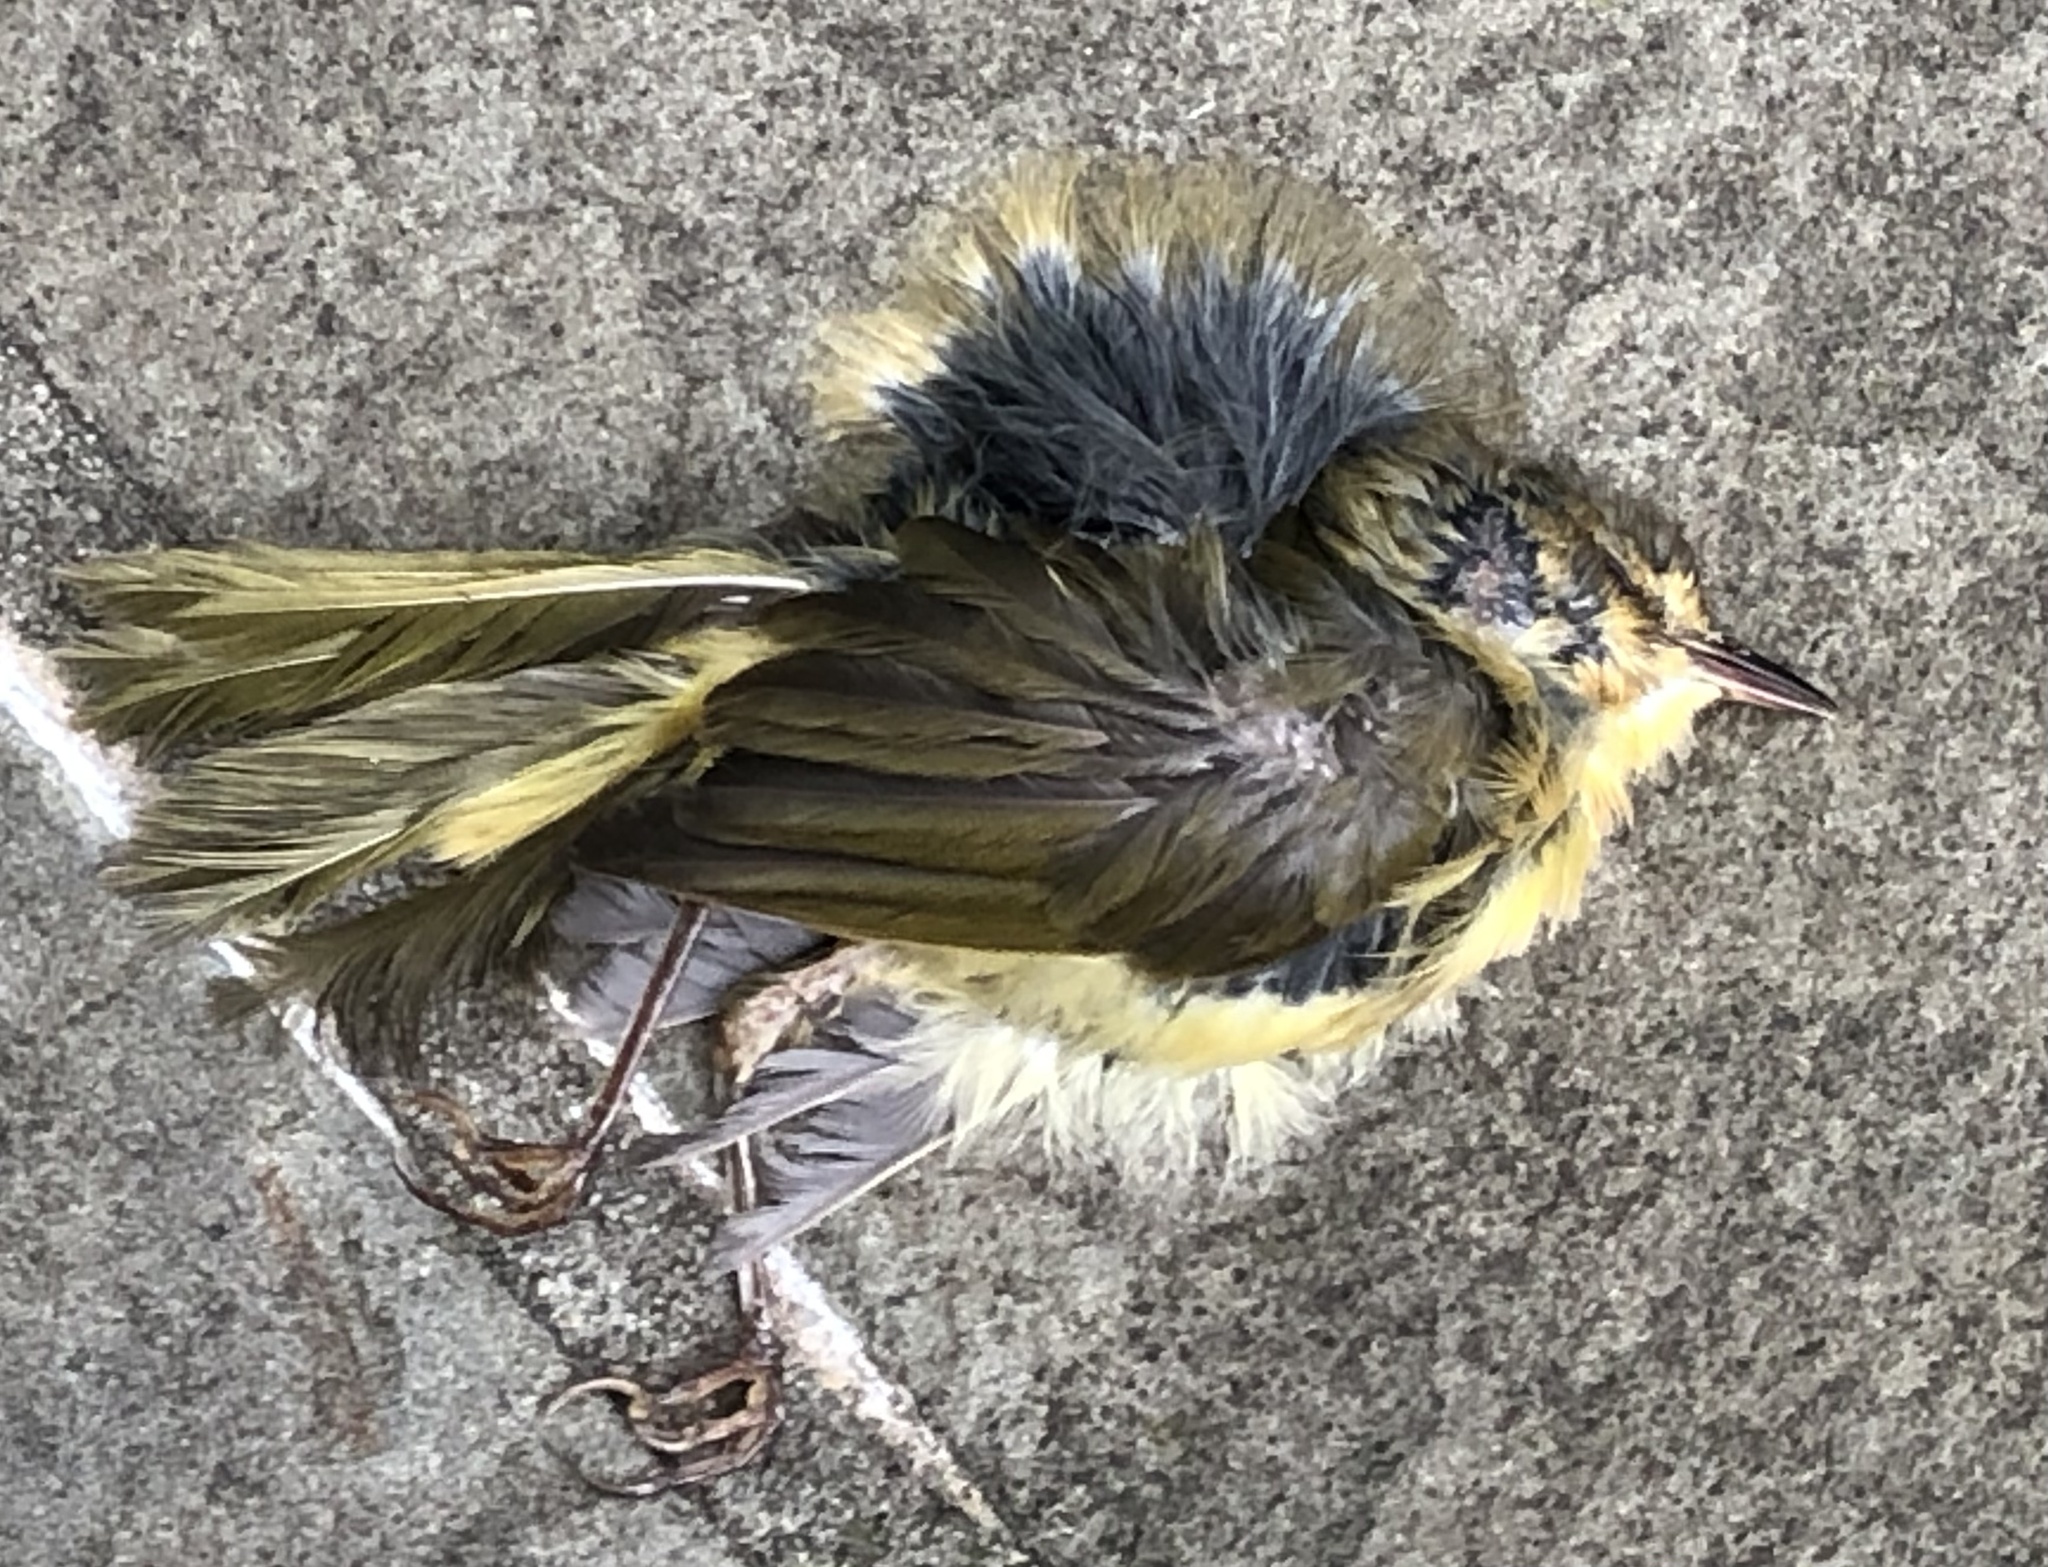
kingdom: Animalia
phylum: Chordata
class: Aves
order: Passeriformes
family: Parulidae
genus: Geothlypis
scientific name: Geothlypis trichas
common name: Common yellowthroat
